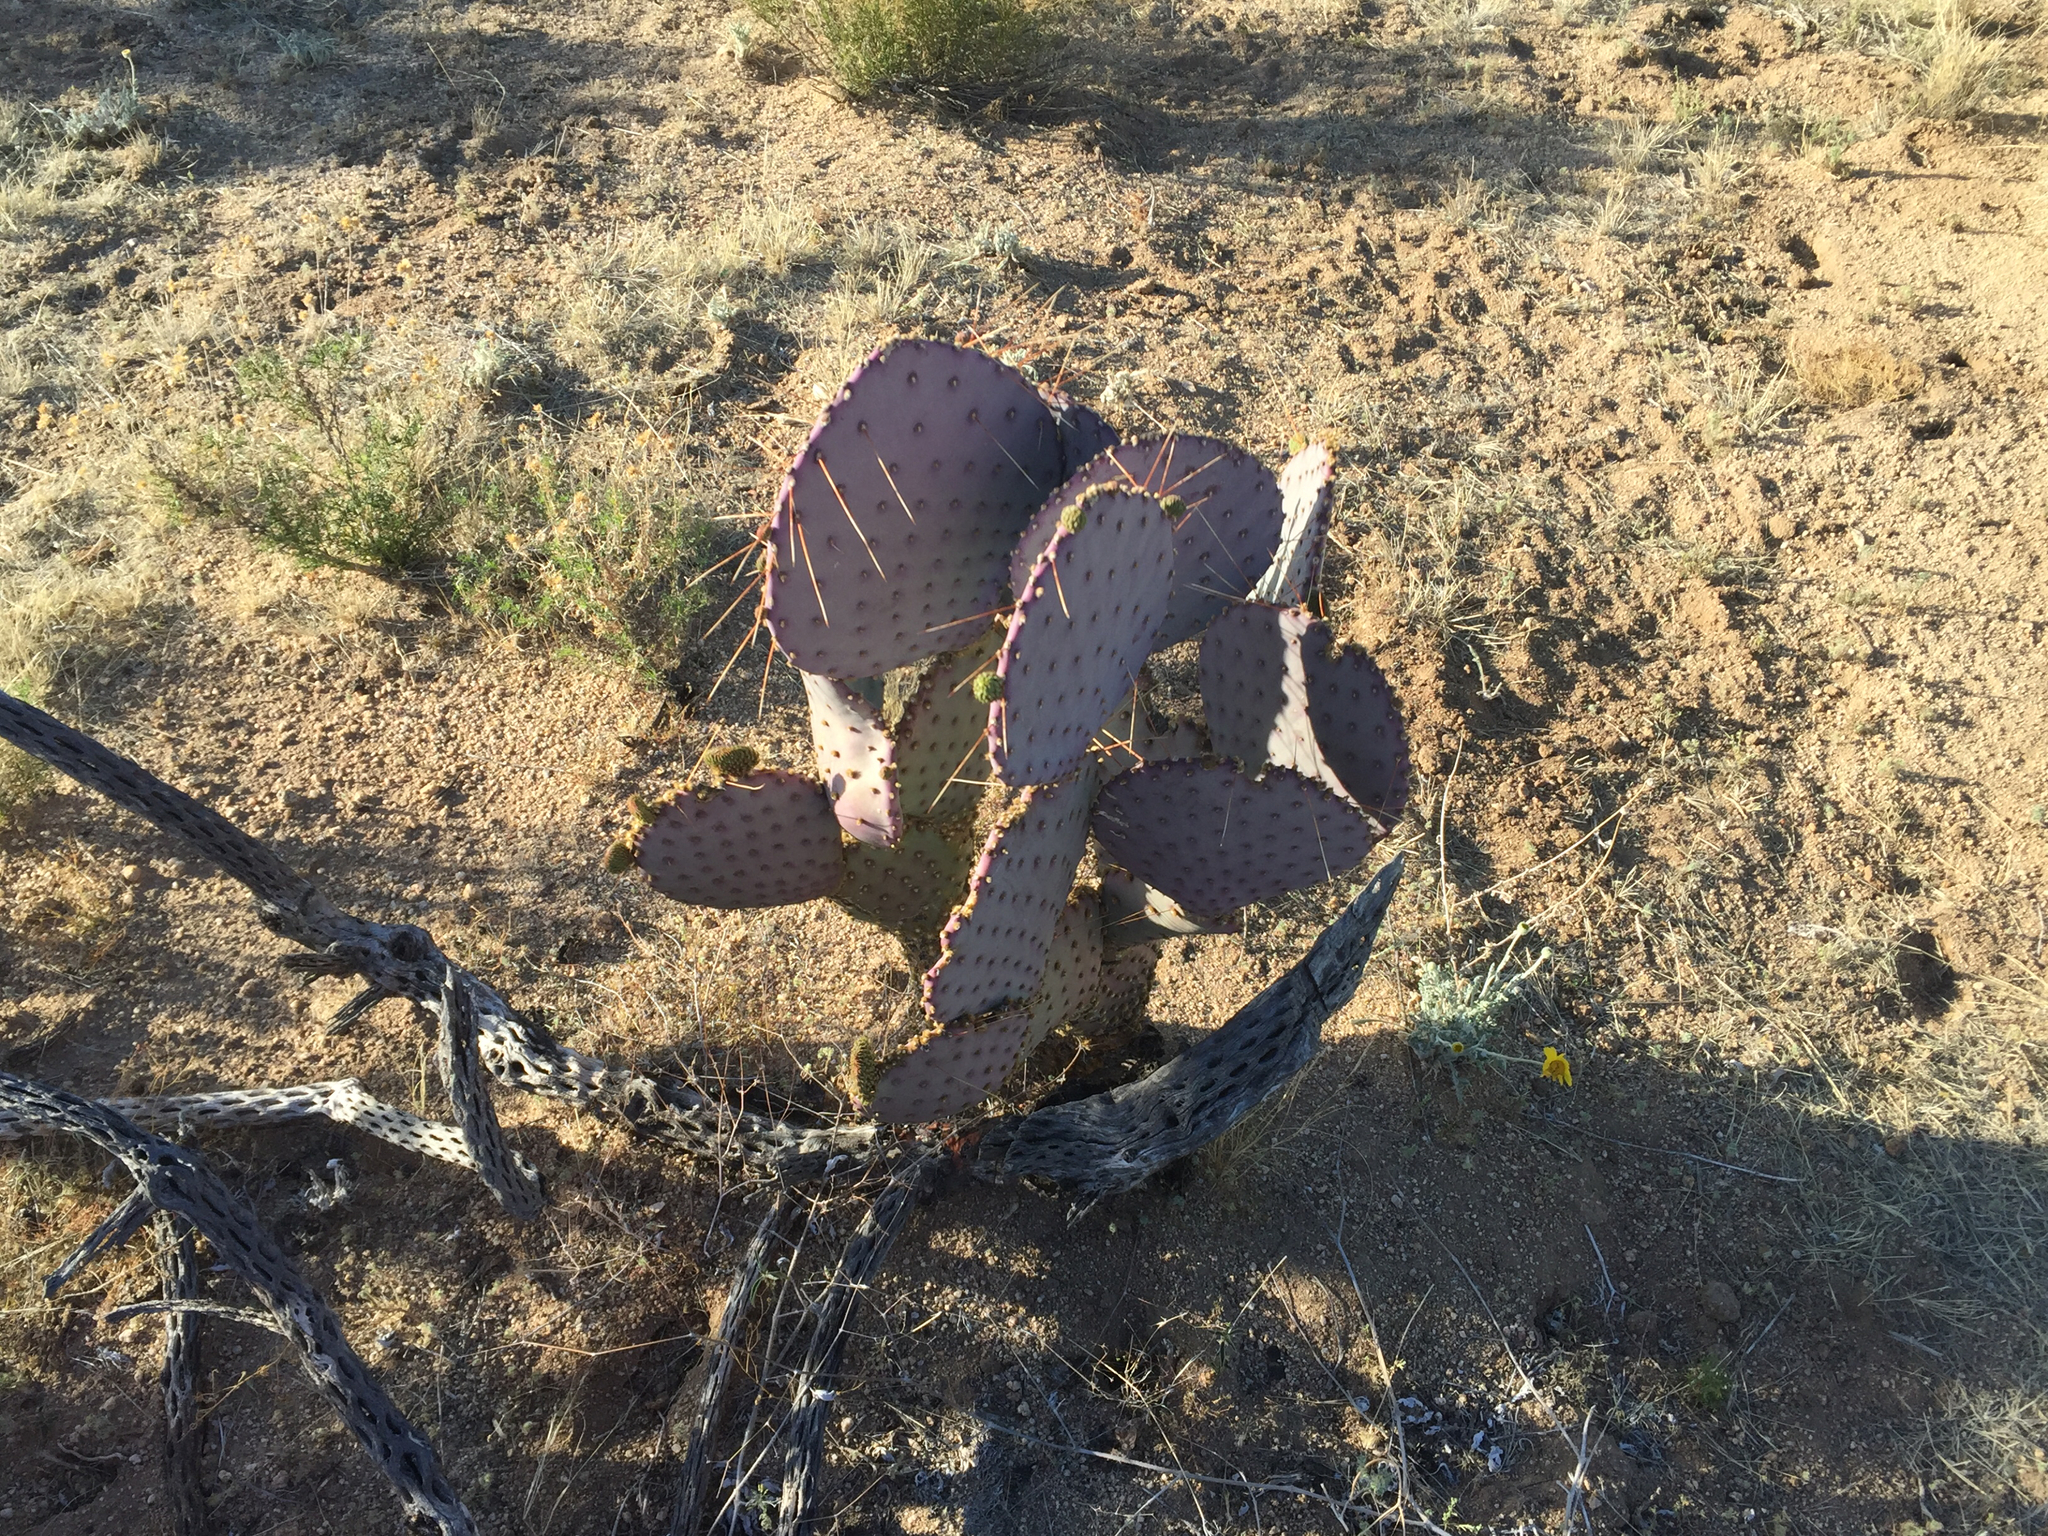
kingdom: Plantae
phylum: Tracheophyta
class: Magnoliopsida
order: Caryophyllales
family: Cactaceae
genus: Opuntia
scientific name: Opuntia gosseliniana
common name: Violet prickly-pear
